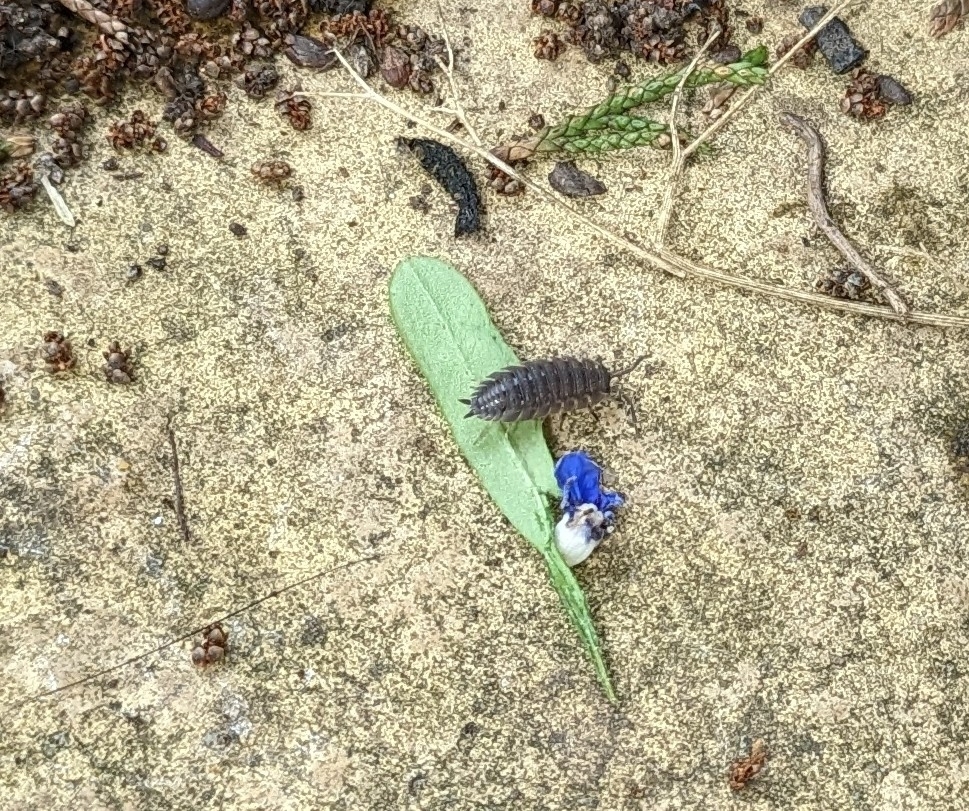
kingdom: Animalia
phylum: Arthropoda
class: Malacostraca
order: Isopoda
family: Porcellionidae
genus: Porcellio
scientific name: Porcellio scaber
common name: Common rough woodlouse
